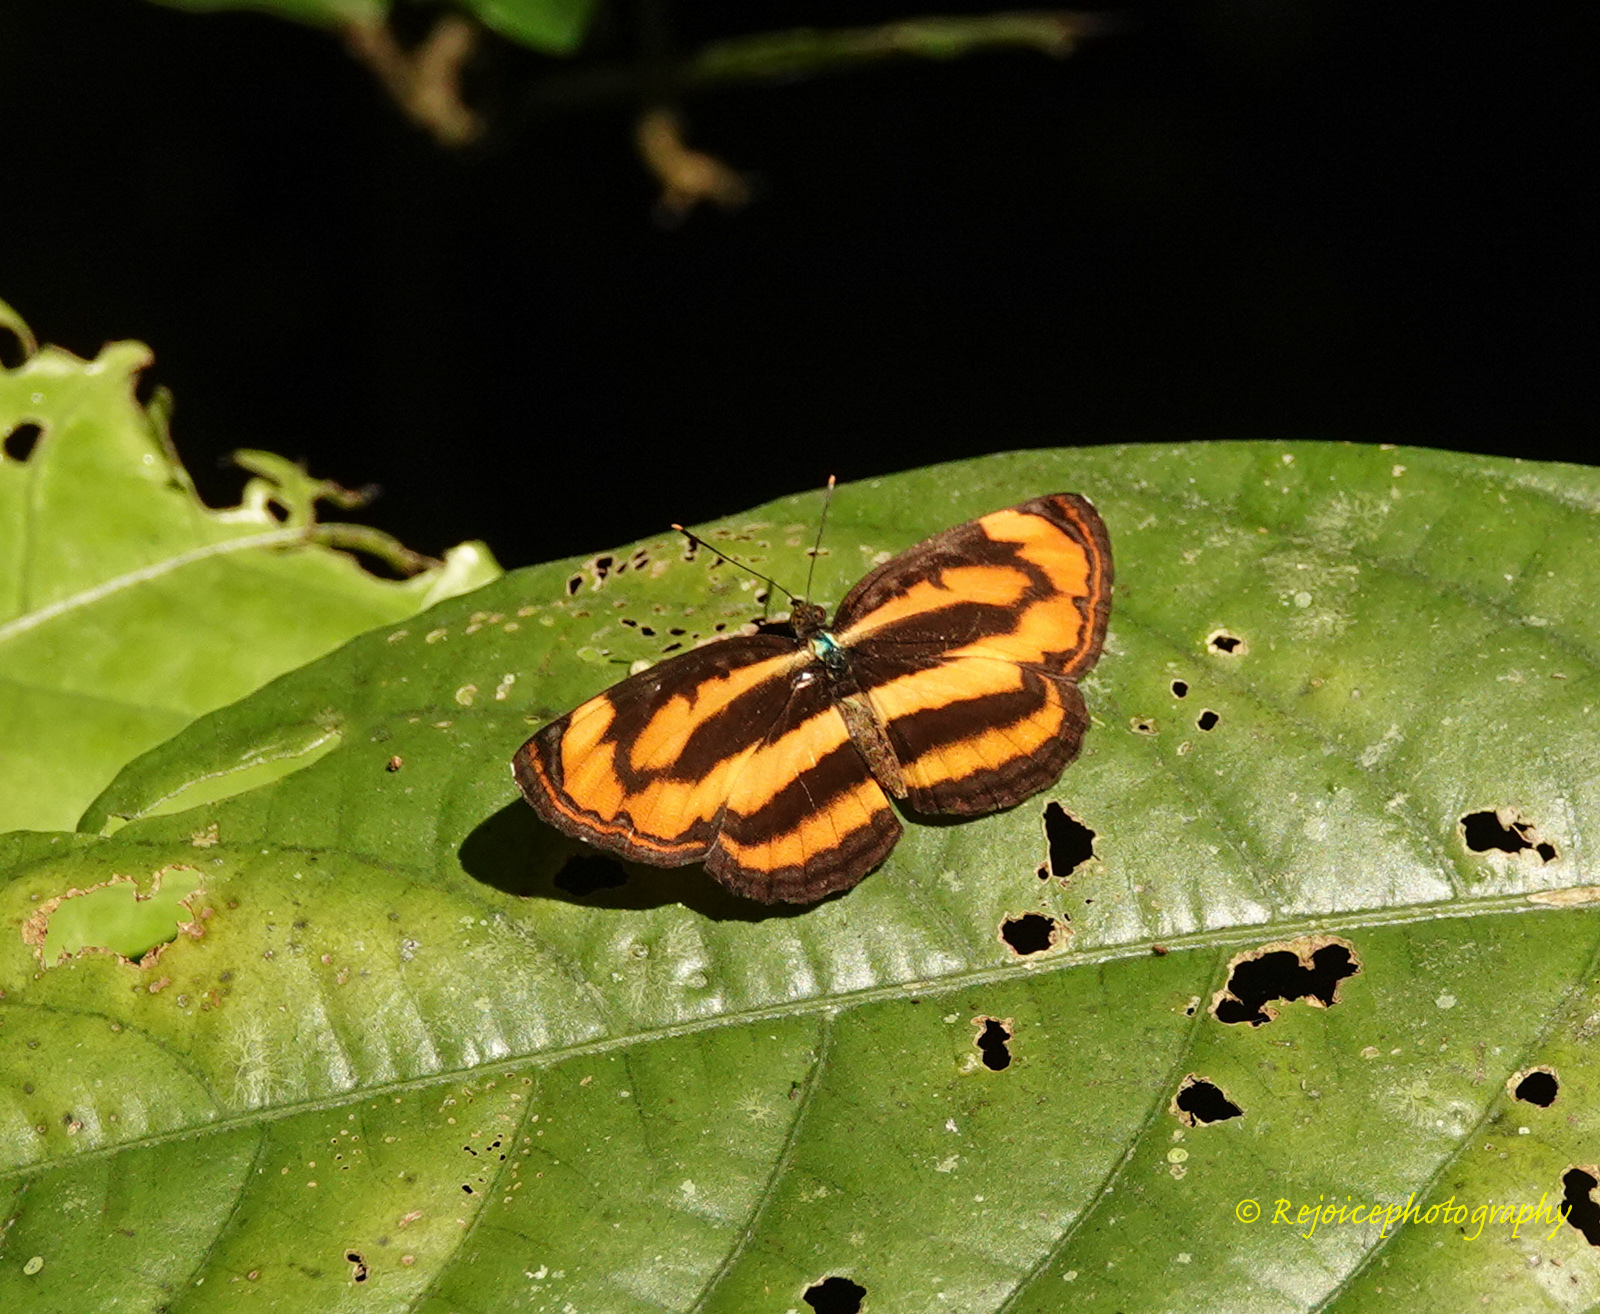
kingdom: Animalia
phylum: Arthropoda
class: Insecta
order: Lepidoptera
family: Nymphalidae
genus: Pantoporia
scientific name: Pantoporia hordonia
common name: Common lascar
